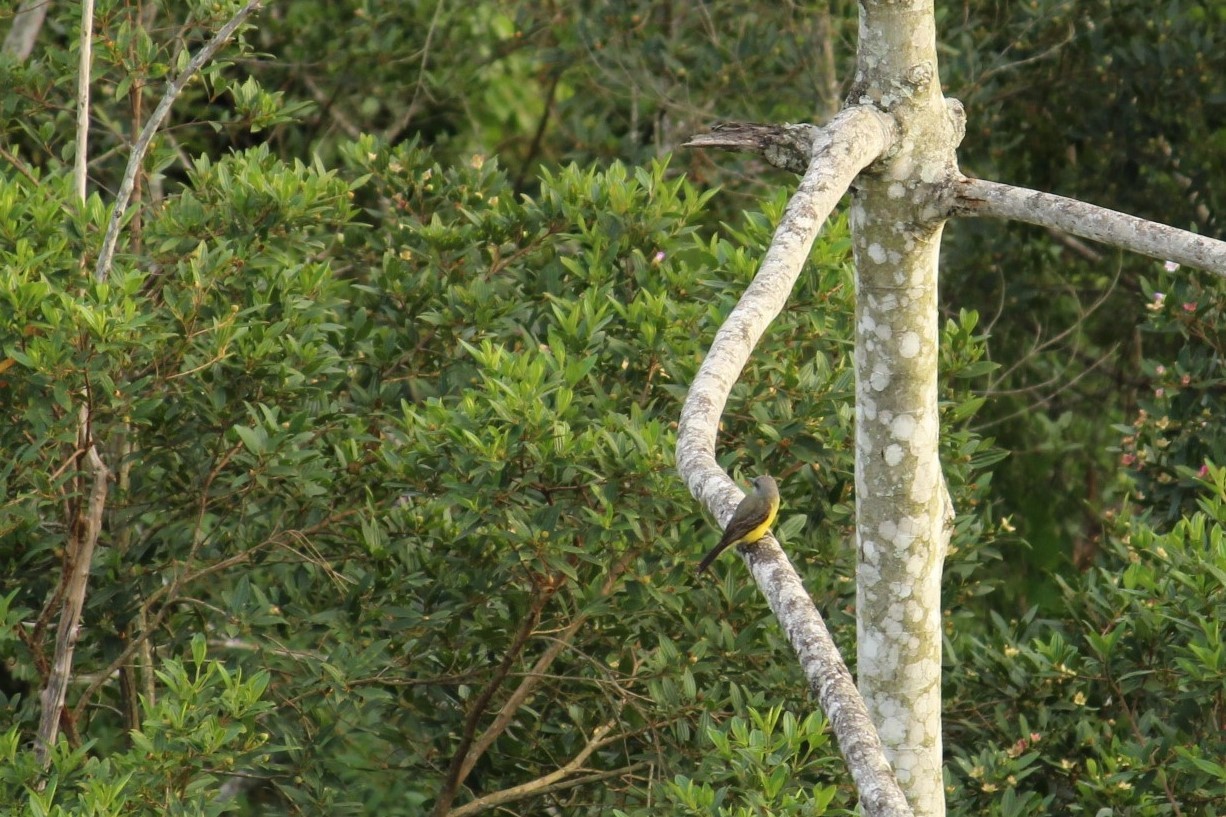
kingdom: Animalia
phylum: Chordata
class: Aves
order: Passeriformes
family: Tyrannidae
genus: Tyrannus
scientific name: Tyrannus melancholicus
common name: Tropical kingbird
